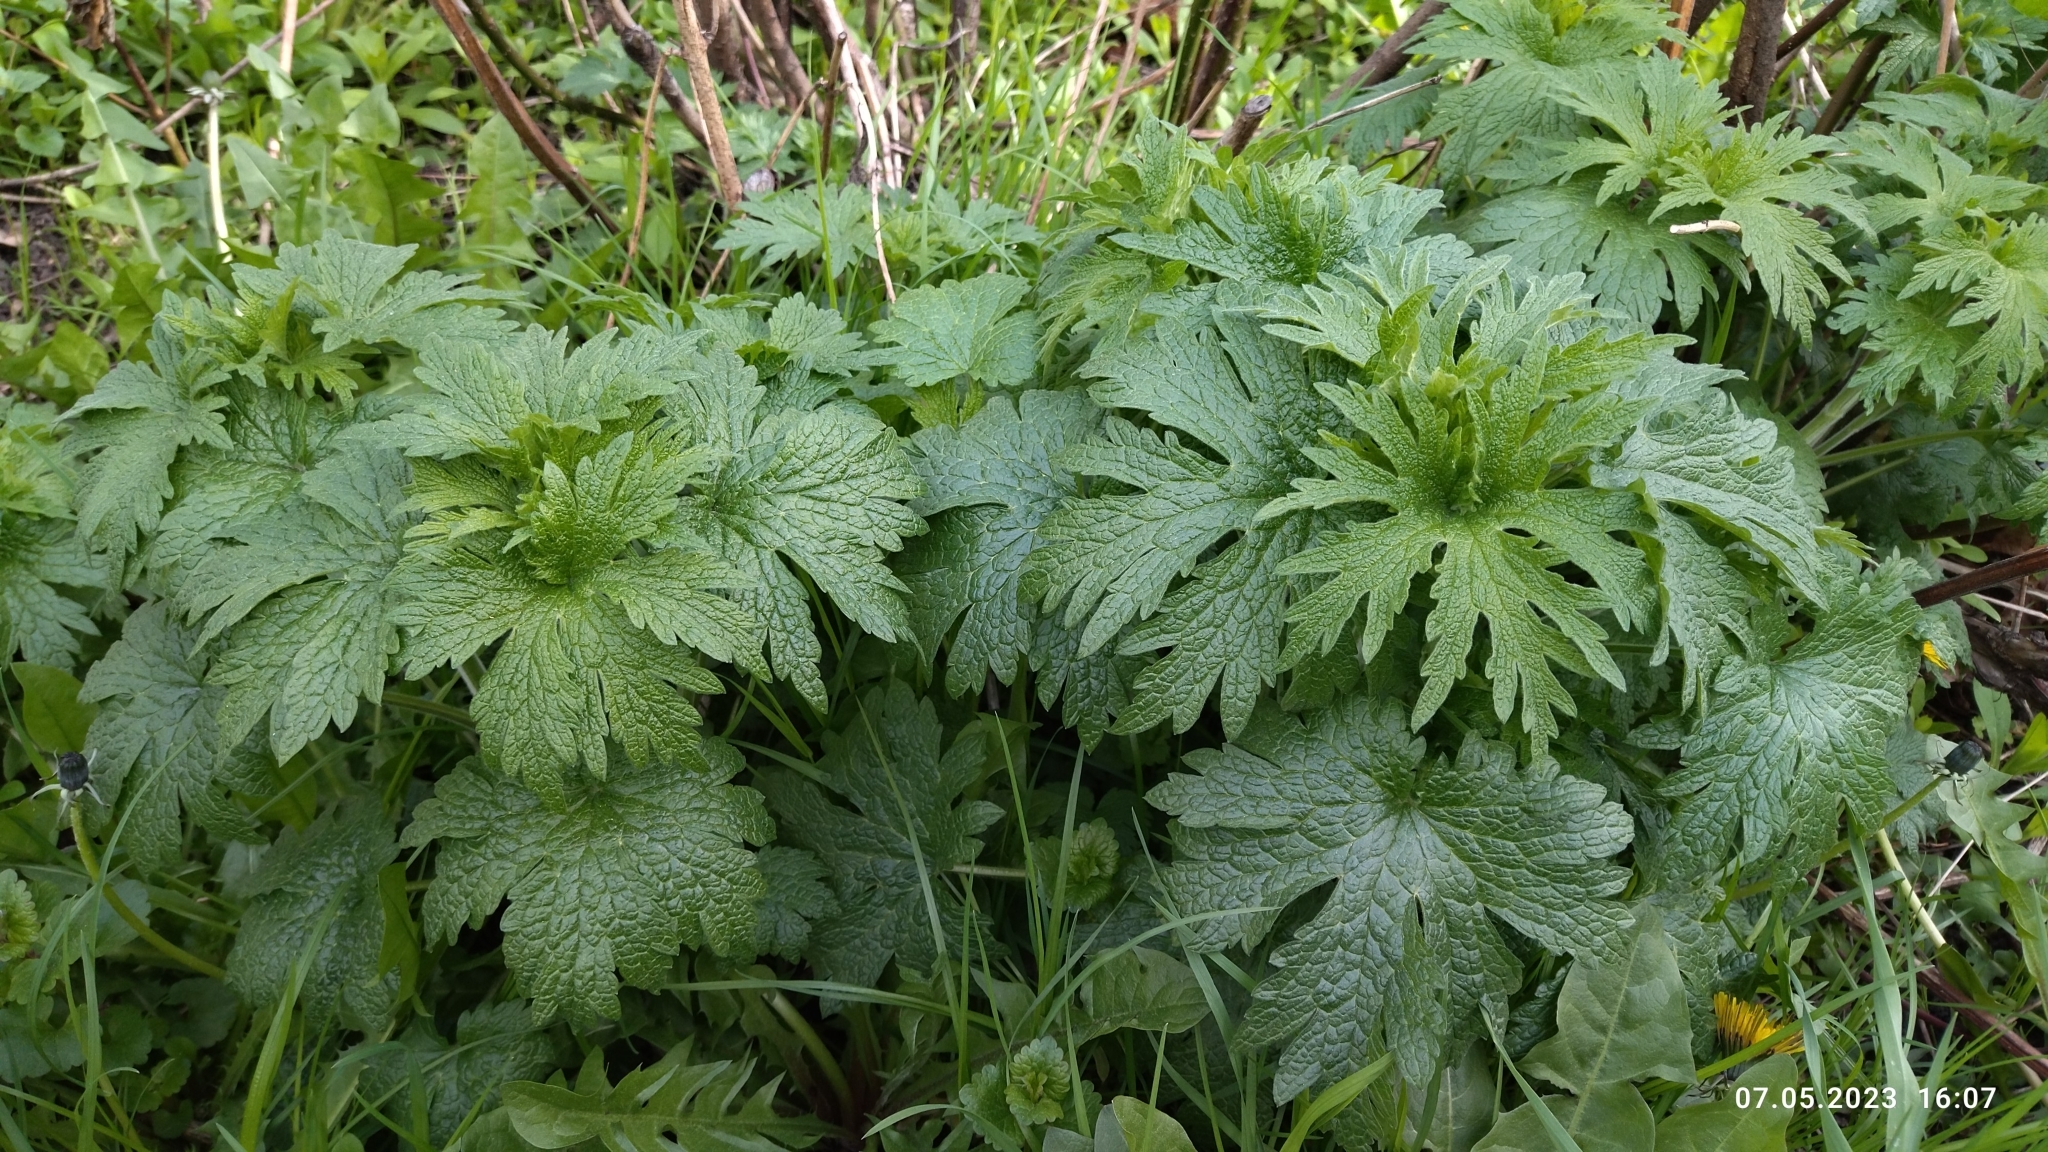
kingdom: Plantae
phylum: Tracheophyta
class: Magnoliopsida
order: Lamiales
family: Lamiaceae
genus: Leonurus
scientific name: Leonurus quinquelobatus
